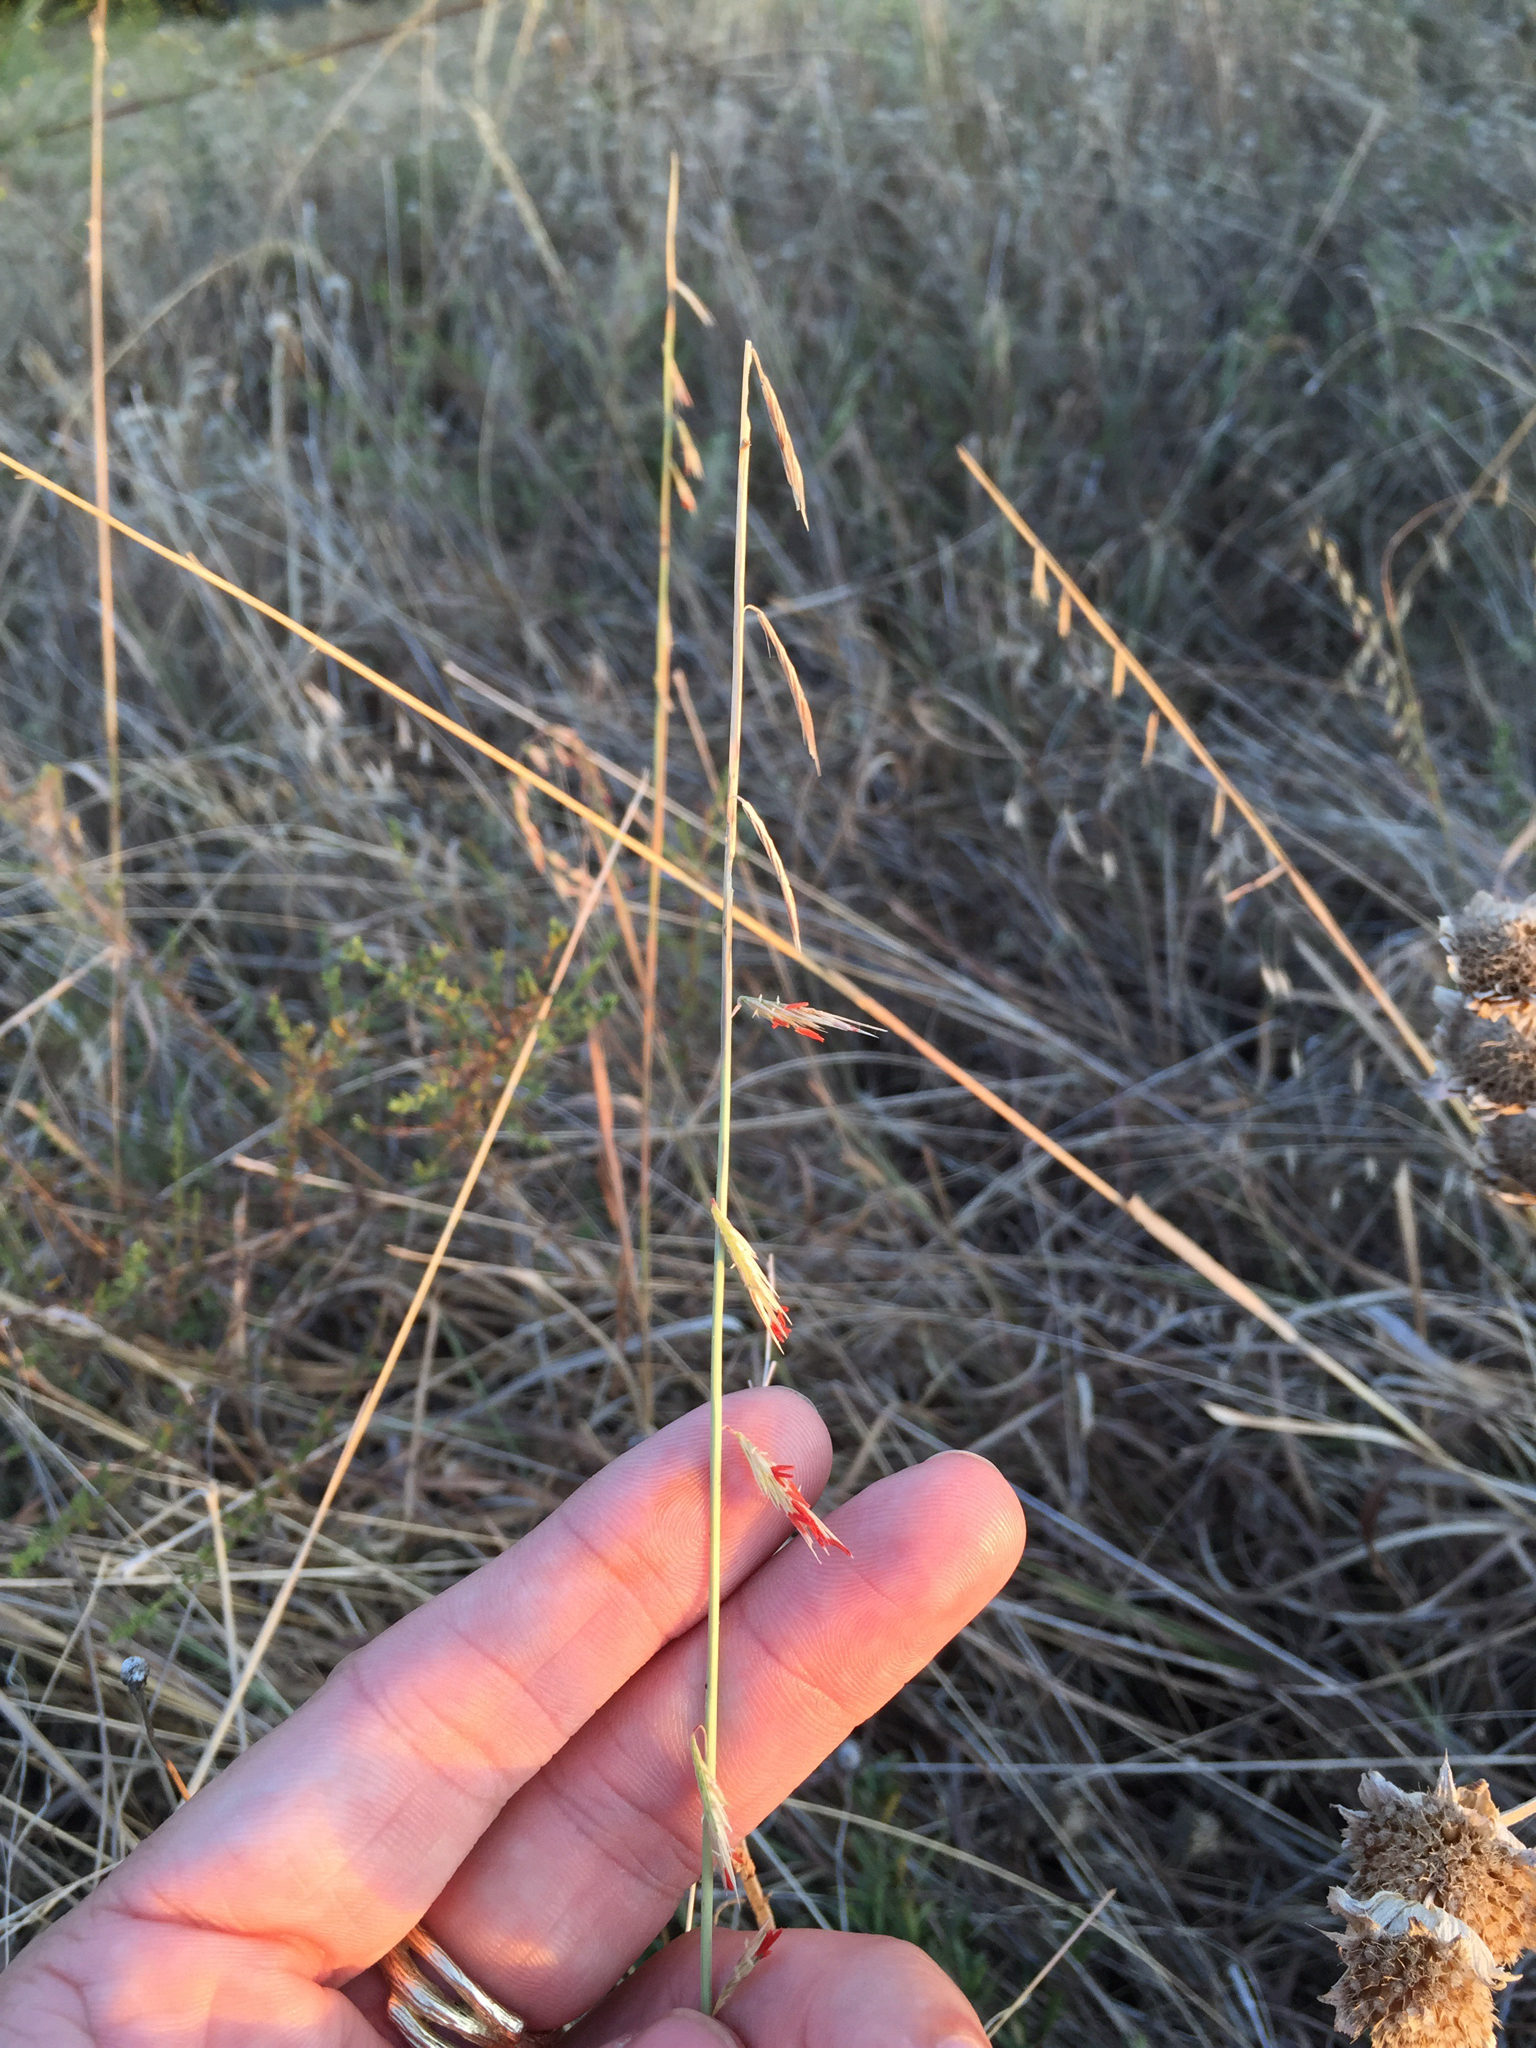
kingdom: Plantae
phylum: Tracheophyta
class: Liliopsida
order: Poales
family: Poaceae
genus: Bouteloua
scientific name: Bouteloua curtipendula
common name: Side-oats grama
